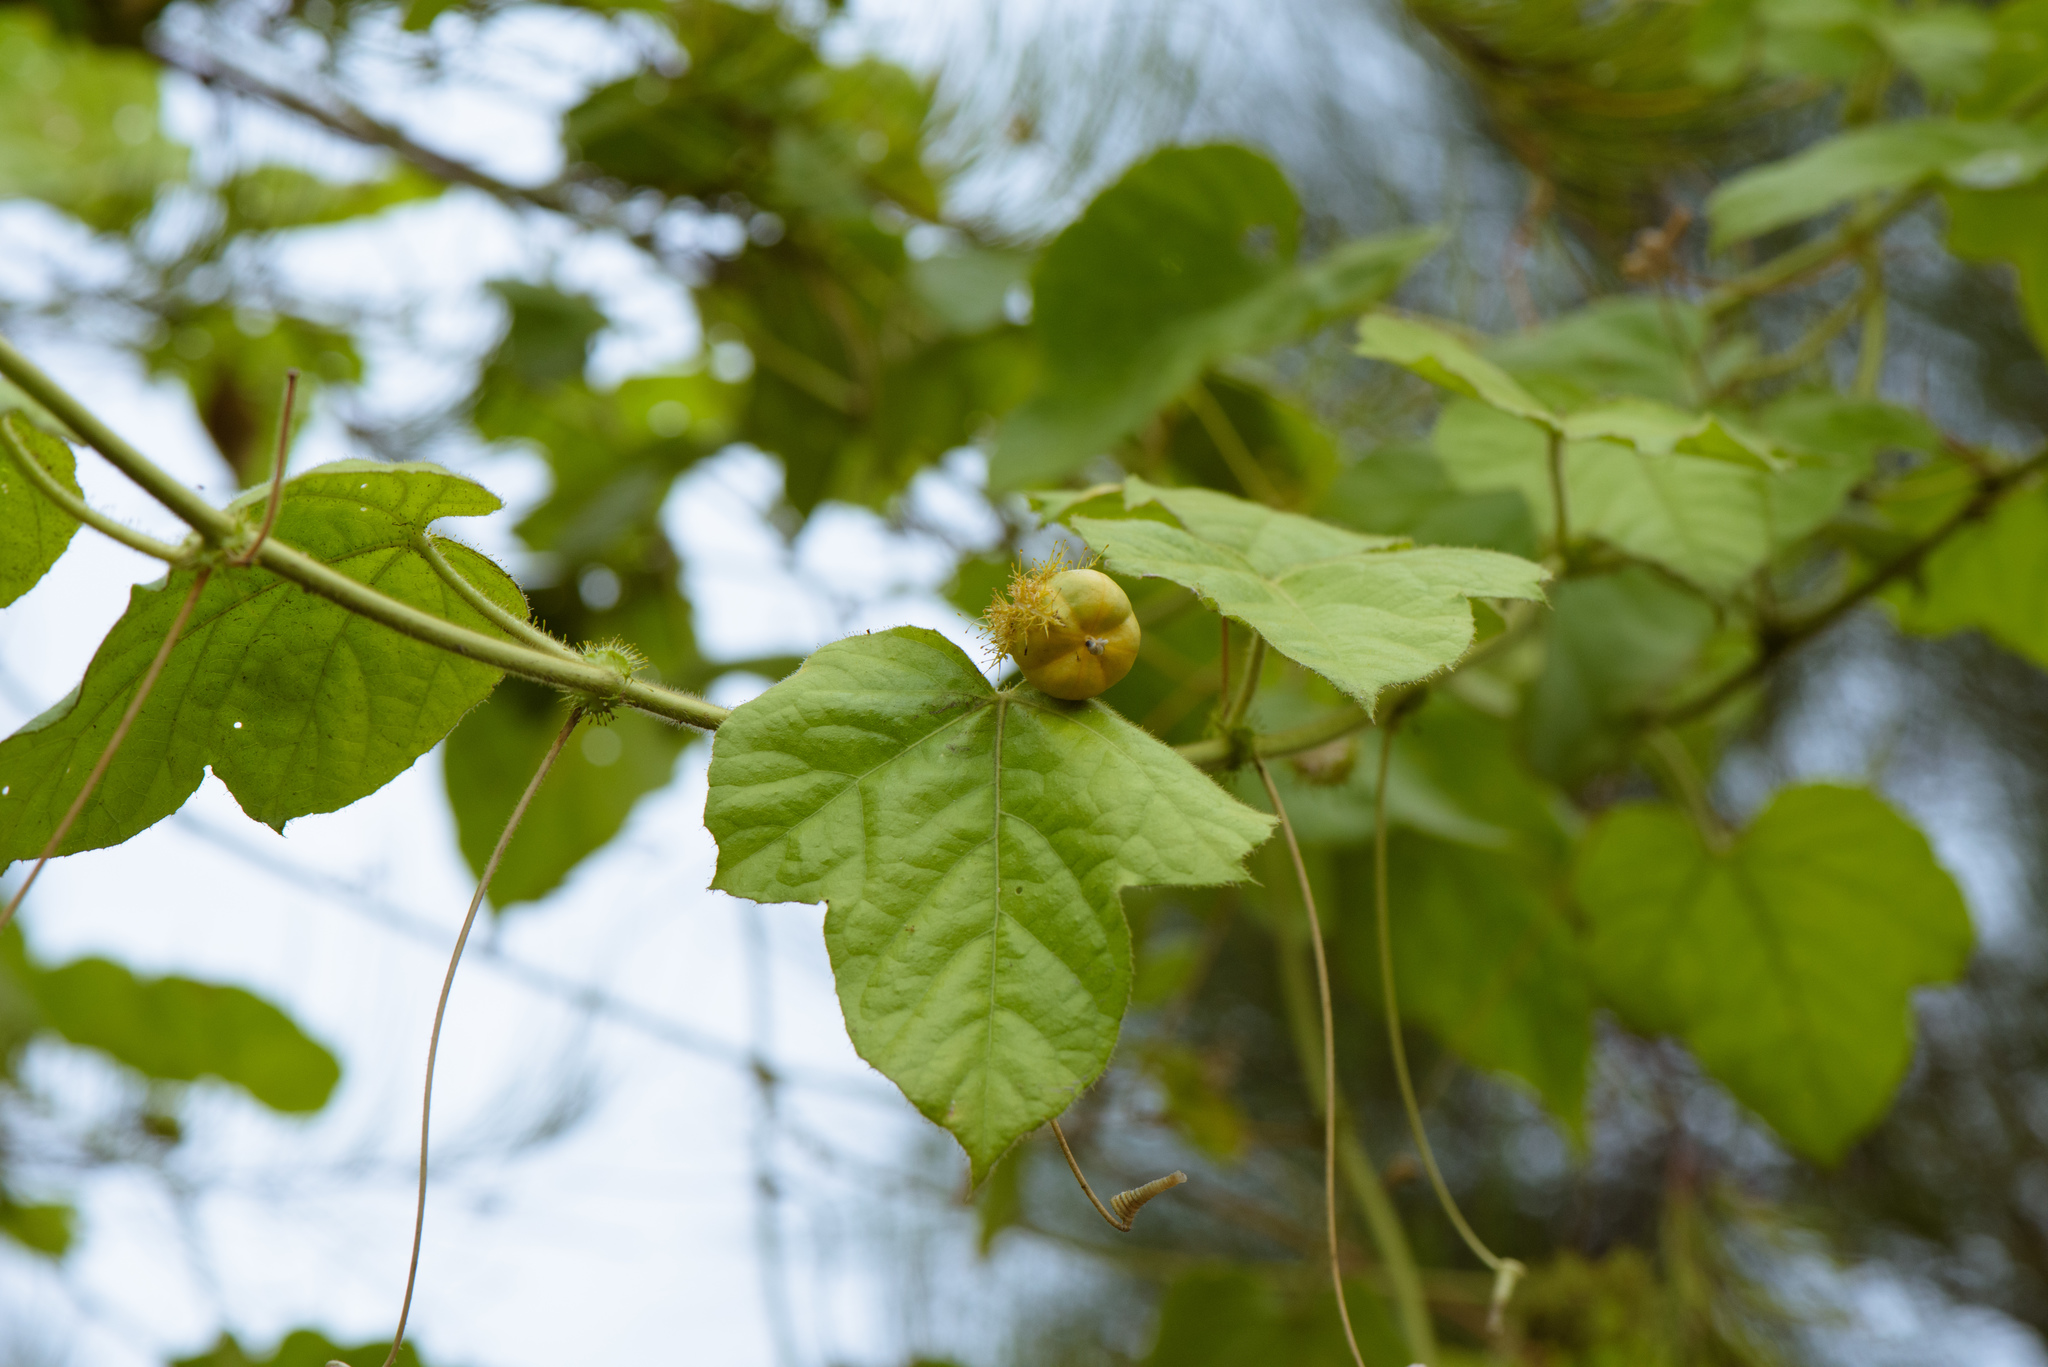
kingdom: Plantae
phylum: Tracheophyta
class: Magnoliopsida
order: Malpighiales
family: Passifloraceae
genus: Passiflora
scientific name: Passiflora vesicaria
